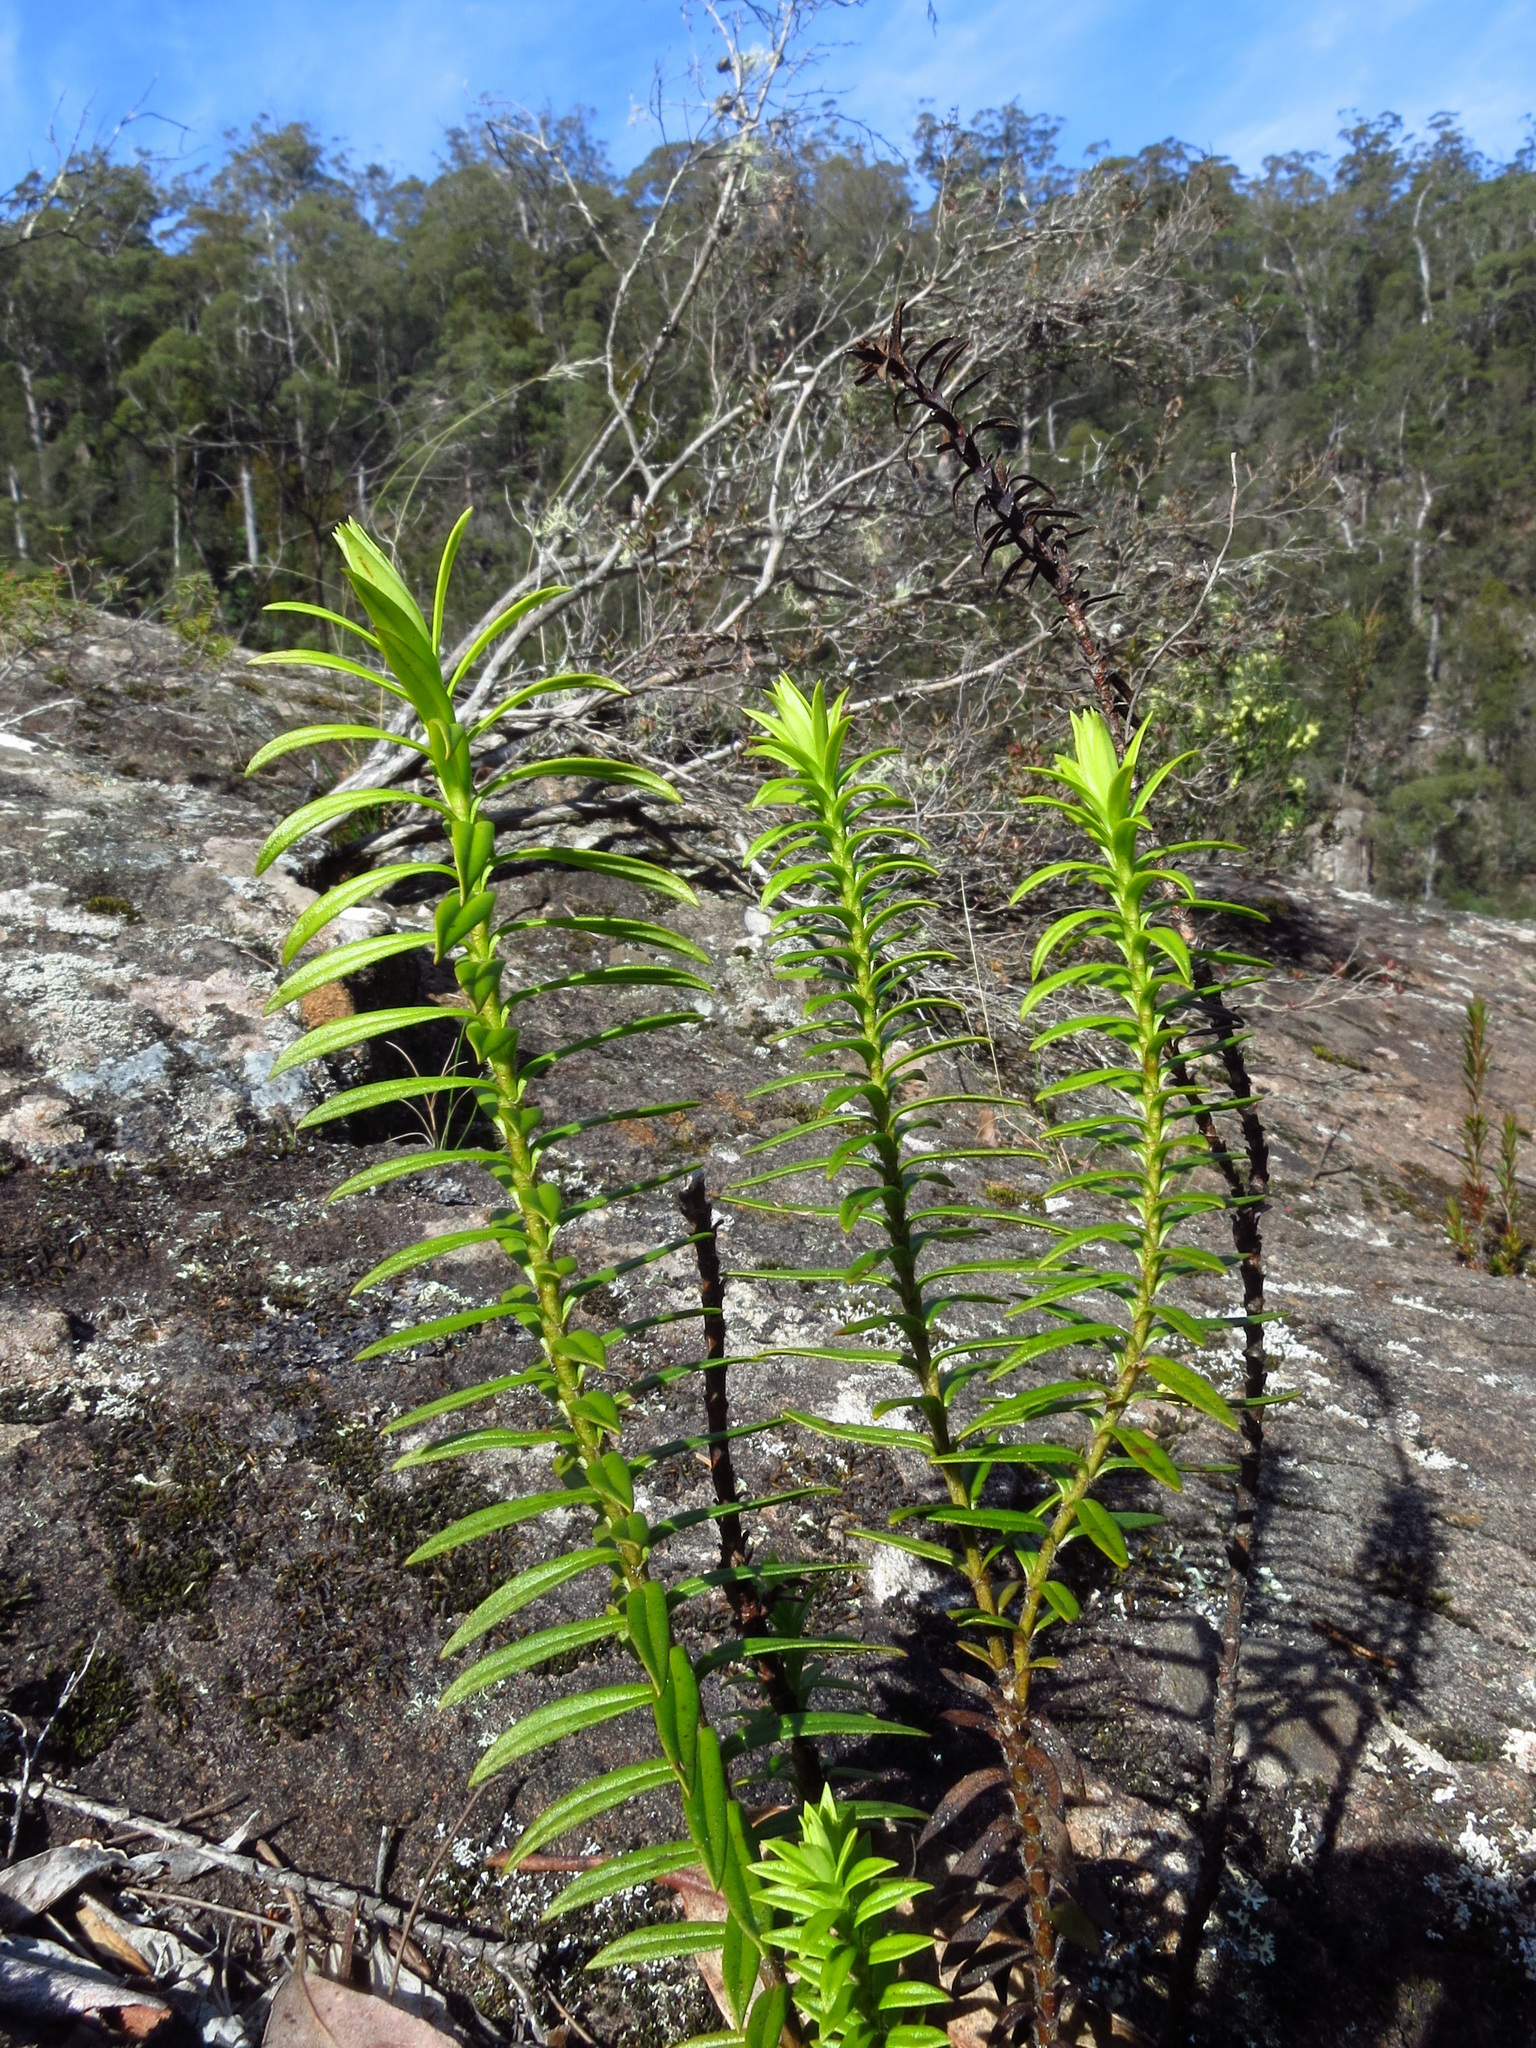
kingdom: Plantae
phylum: Tracheophyta
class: Magnoliopsida
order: Lamiales
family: Plantaginaceae
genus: Veronica
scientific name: Veronica continua
